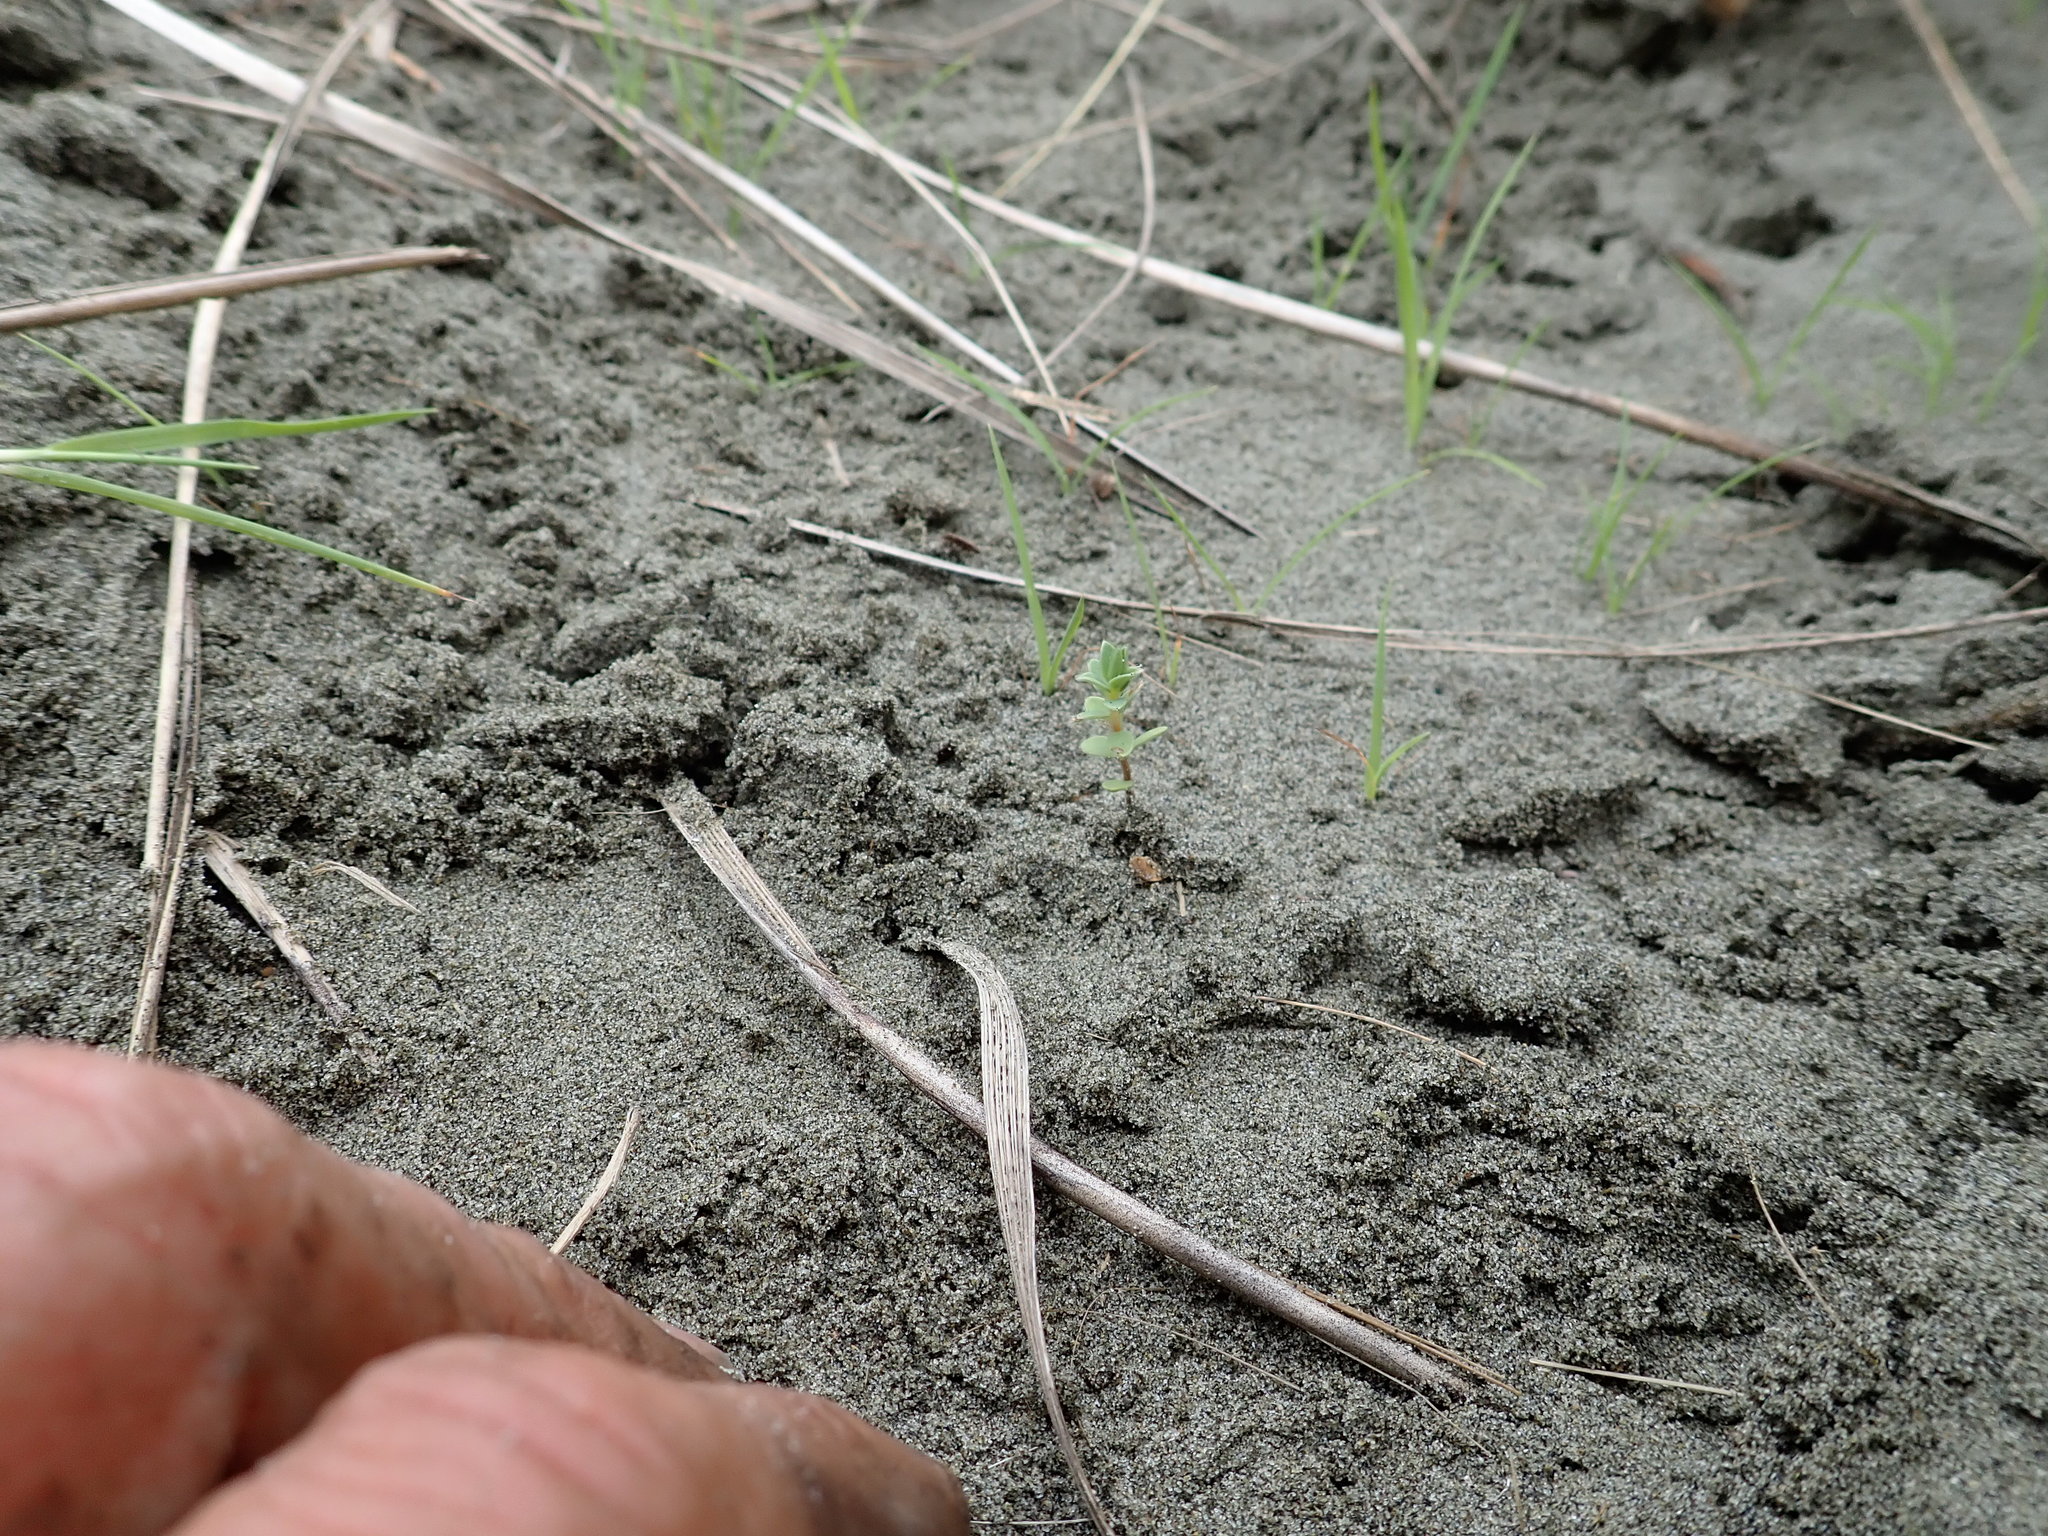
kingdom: Plantae
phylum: Tracheophyta
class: Magnoliopsida
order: Malvales
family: Thymelaeaceae
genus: Pimelea
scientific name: Pimelea villosa
